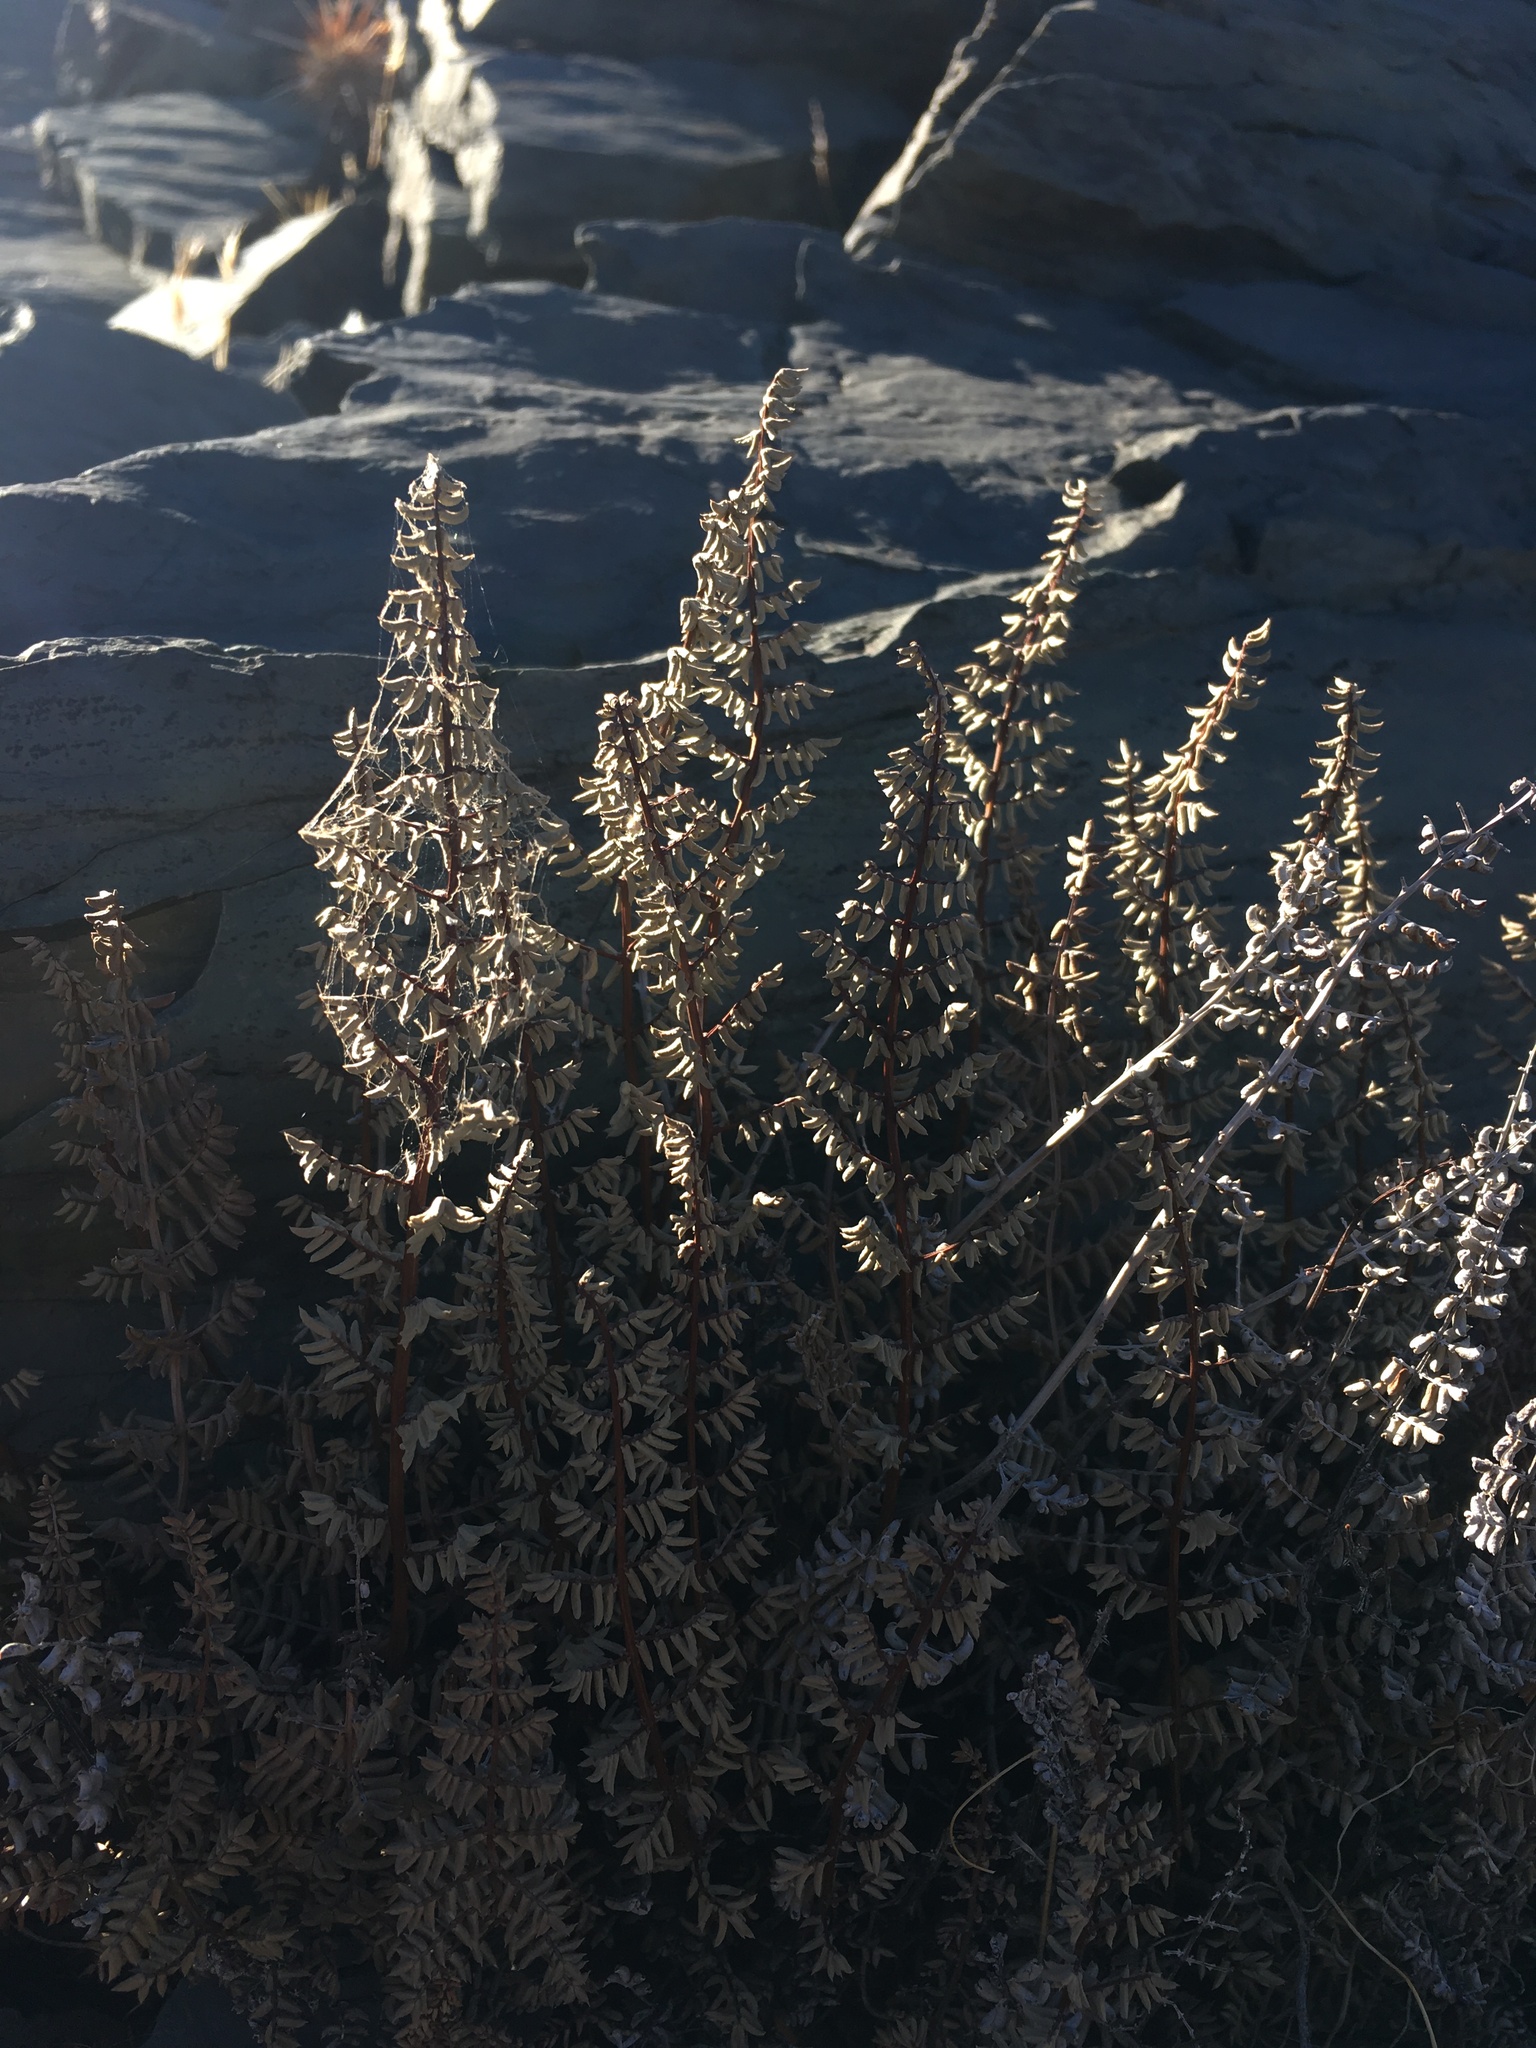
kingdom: Plantae
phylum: Tracheophyta
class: Polypodiopsida
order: Polypodiales
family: Pteridaceae
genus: Pellaea
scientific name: Pellaea mucronata
